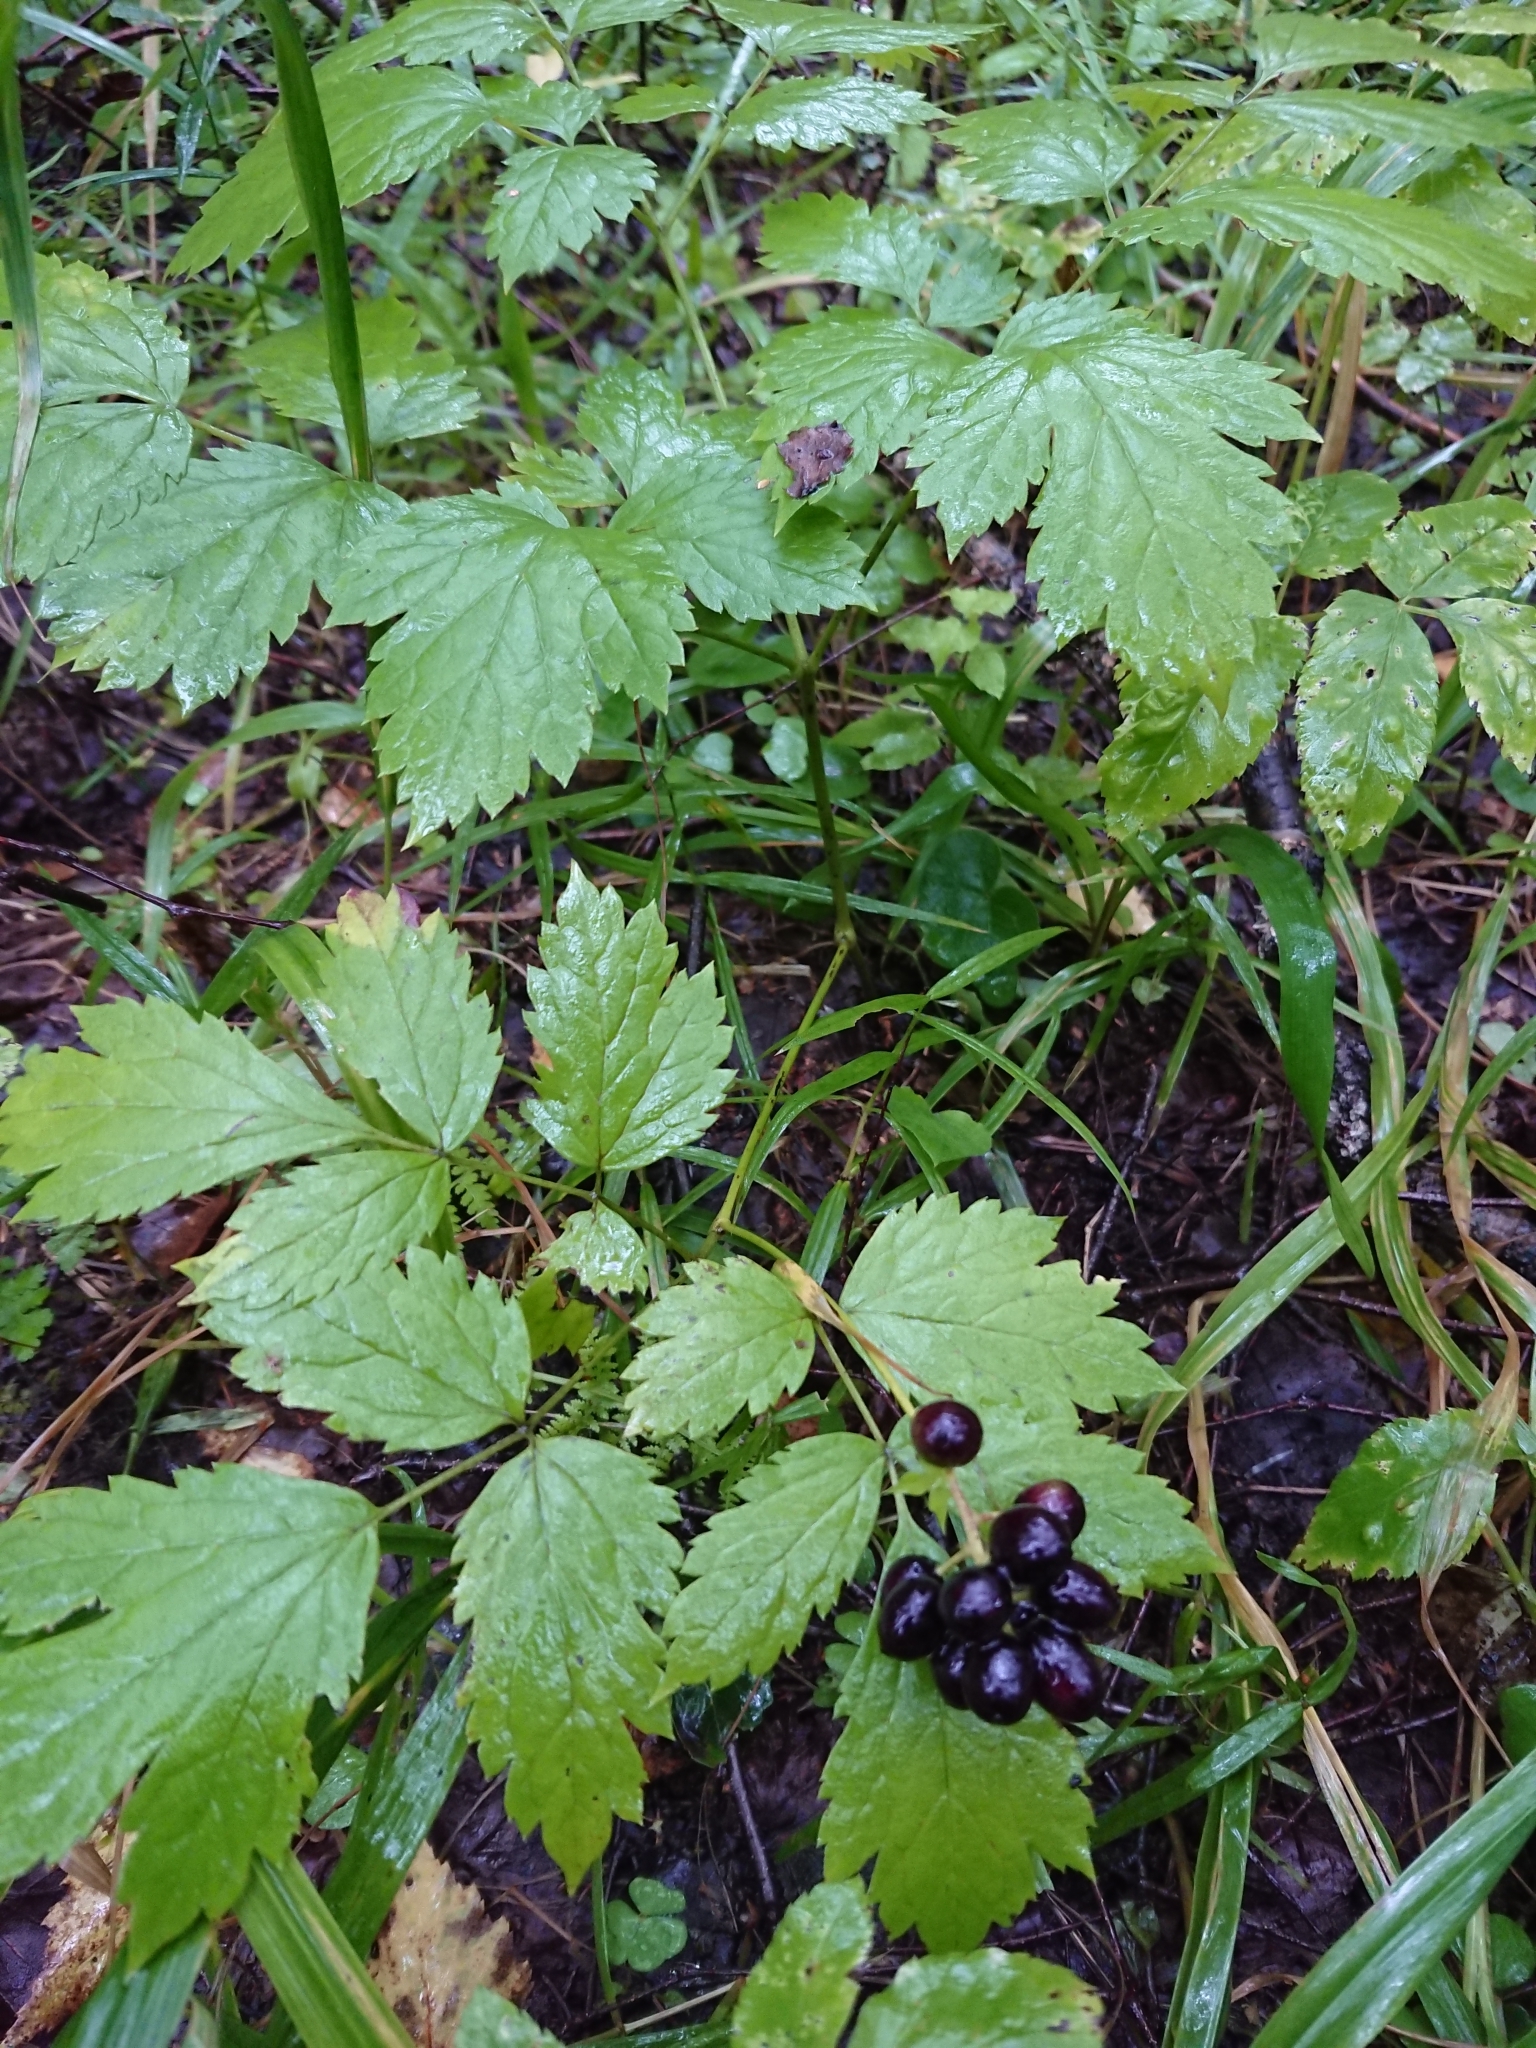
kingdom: Plantae
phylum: Tracheophyta
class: Magnoliopsida
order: Ranunculales
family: Ranunculaceae
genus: Actaea
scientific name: Actaea spicata
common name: Baneberry
